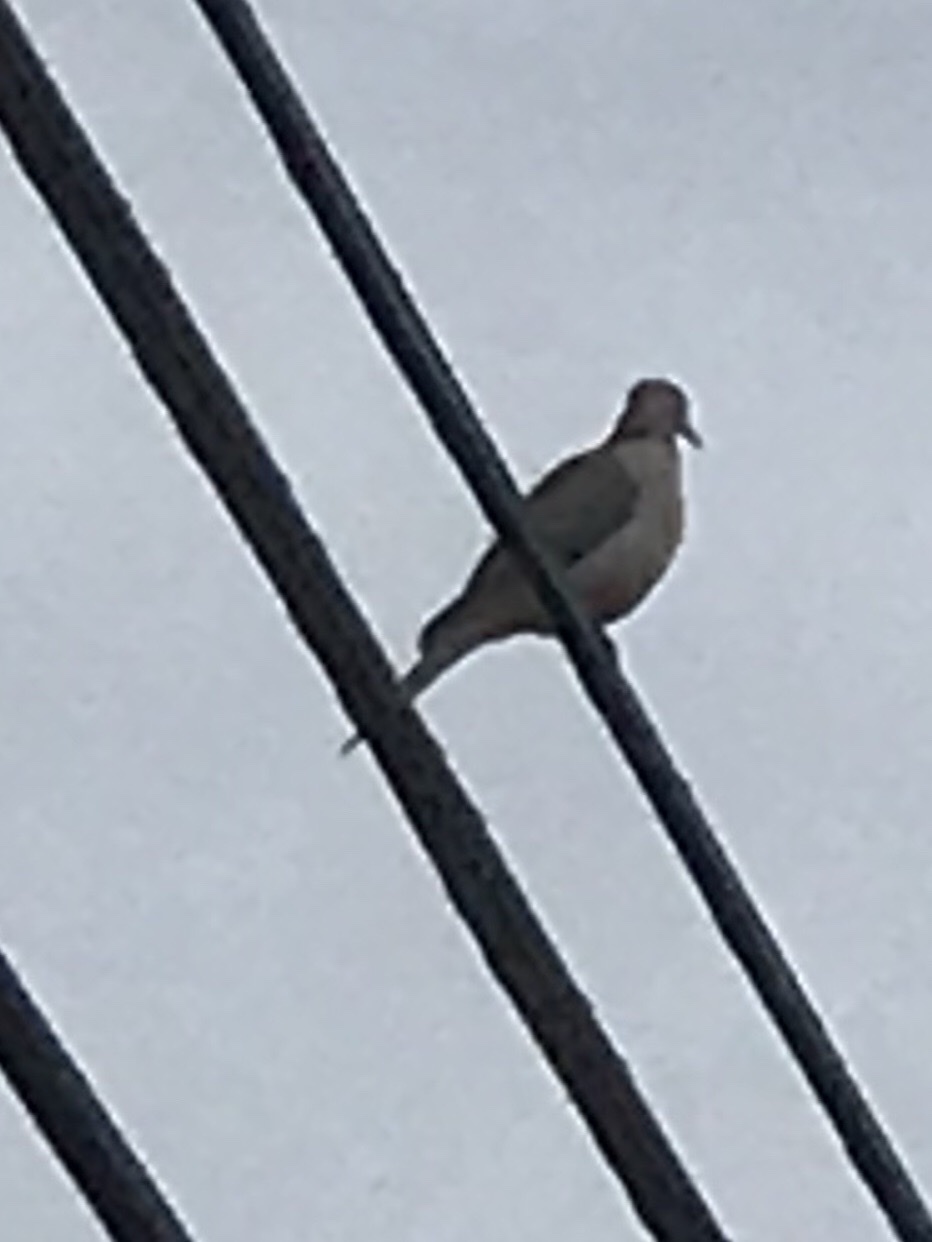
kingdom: Animalia
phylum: Chordata
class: Aves
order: Columbiformes
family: Columbidae
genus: Zenaida
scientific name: Zenaida macroura
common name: Mourning dove
